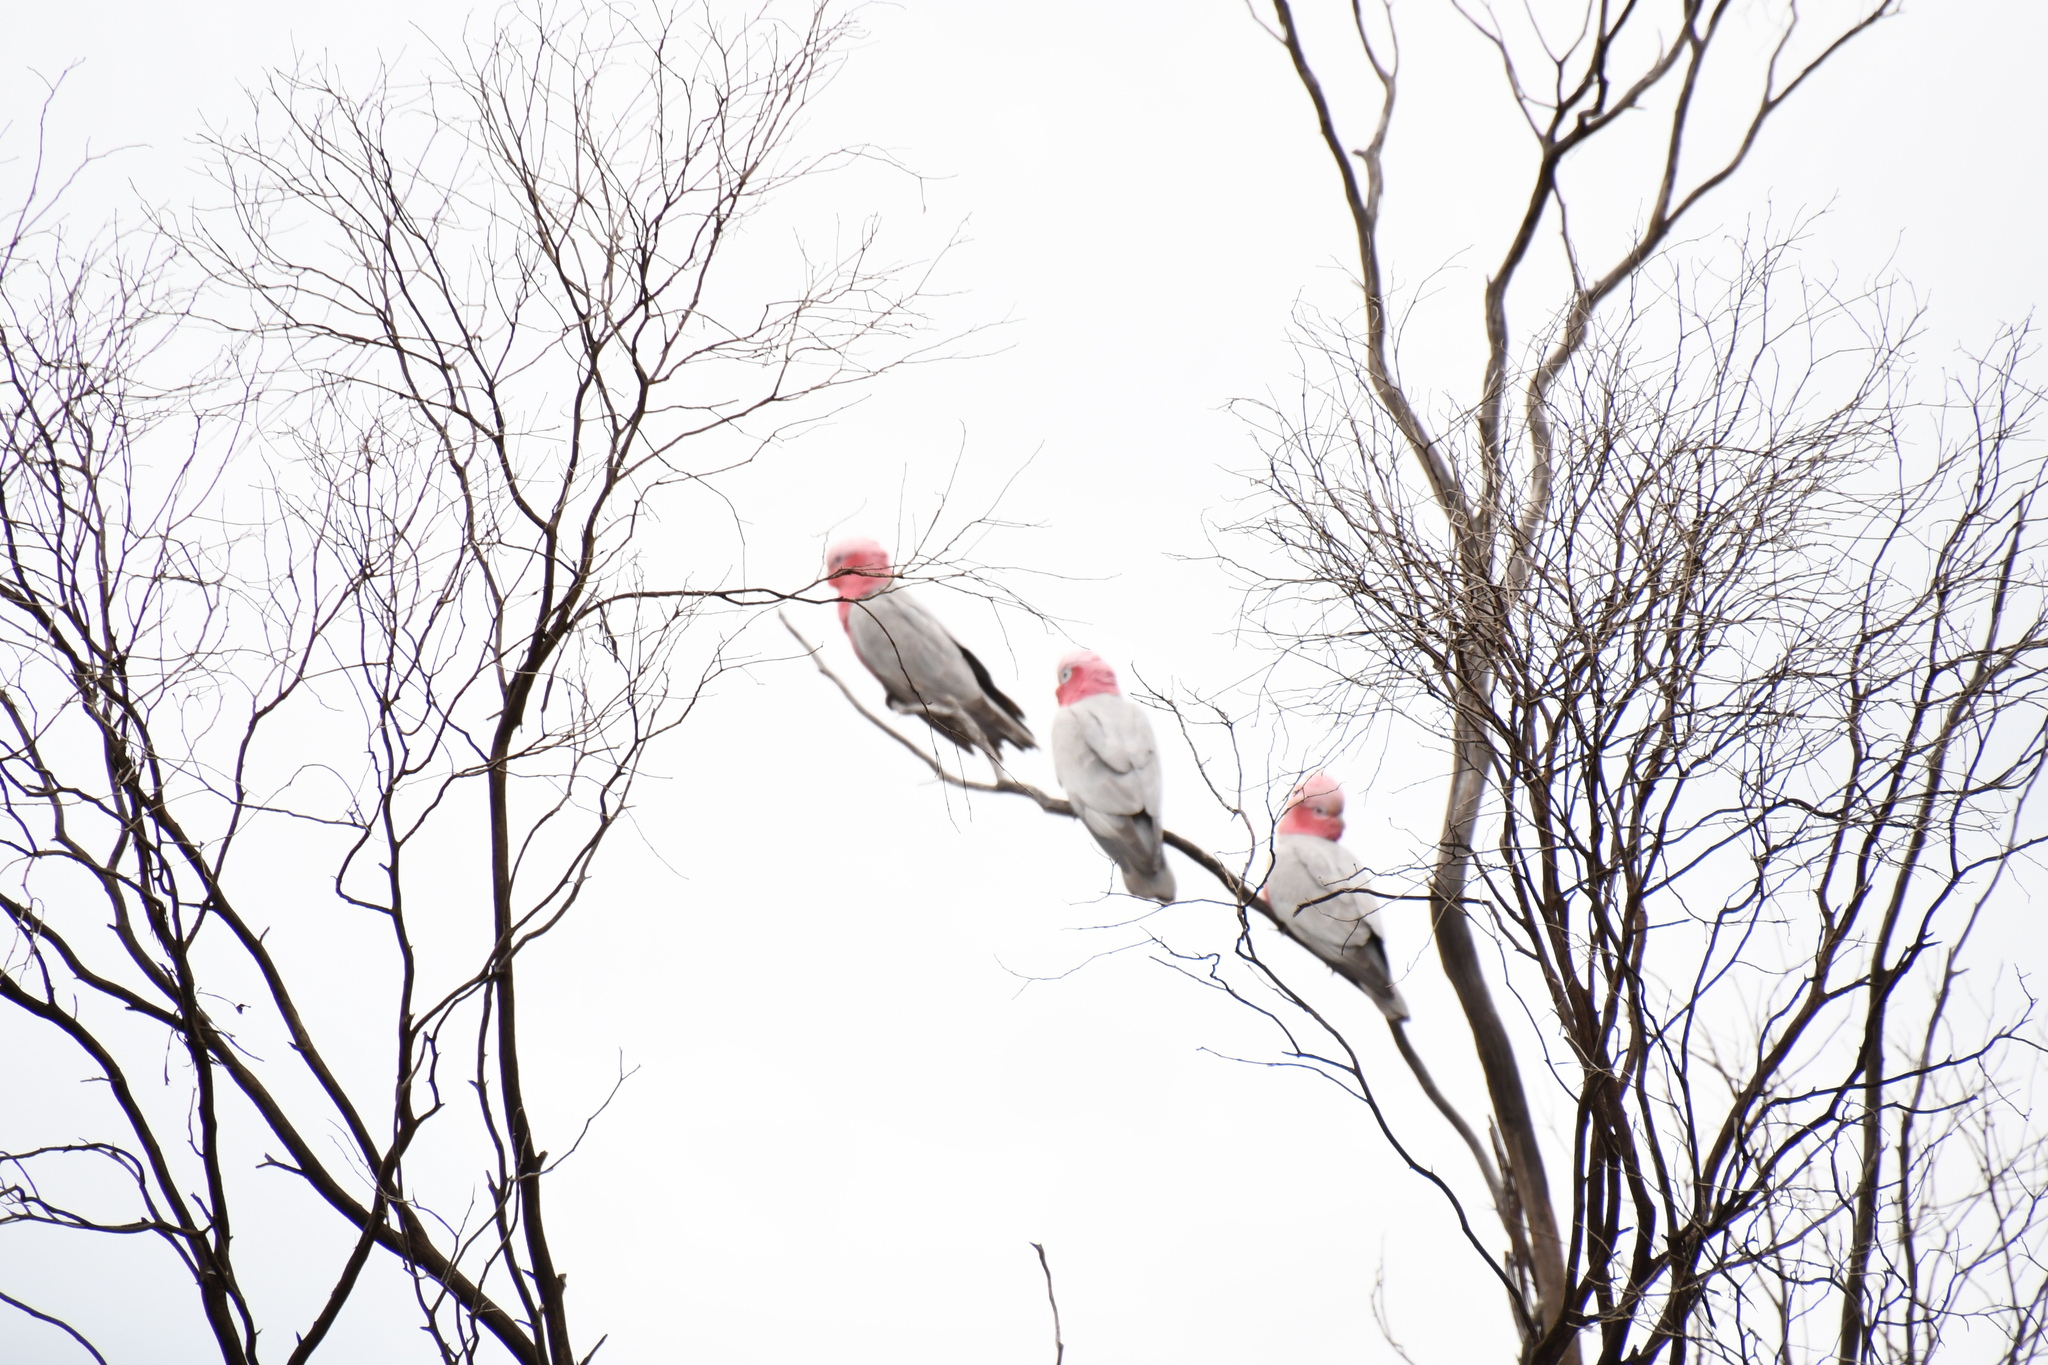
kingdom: Animalia
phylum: Chordata
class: Aves
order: Psittaciformes
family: Psittacidae
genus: Eolophus
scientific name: Eolophus roseicapilla
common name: Galah
